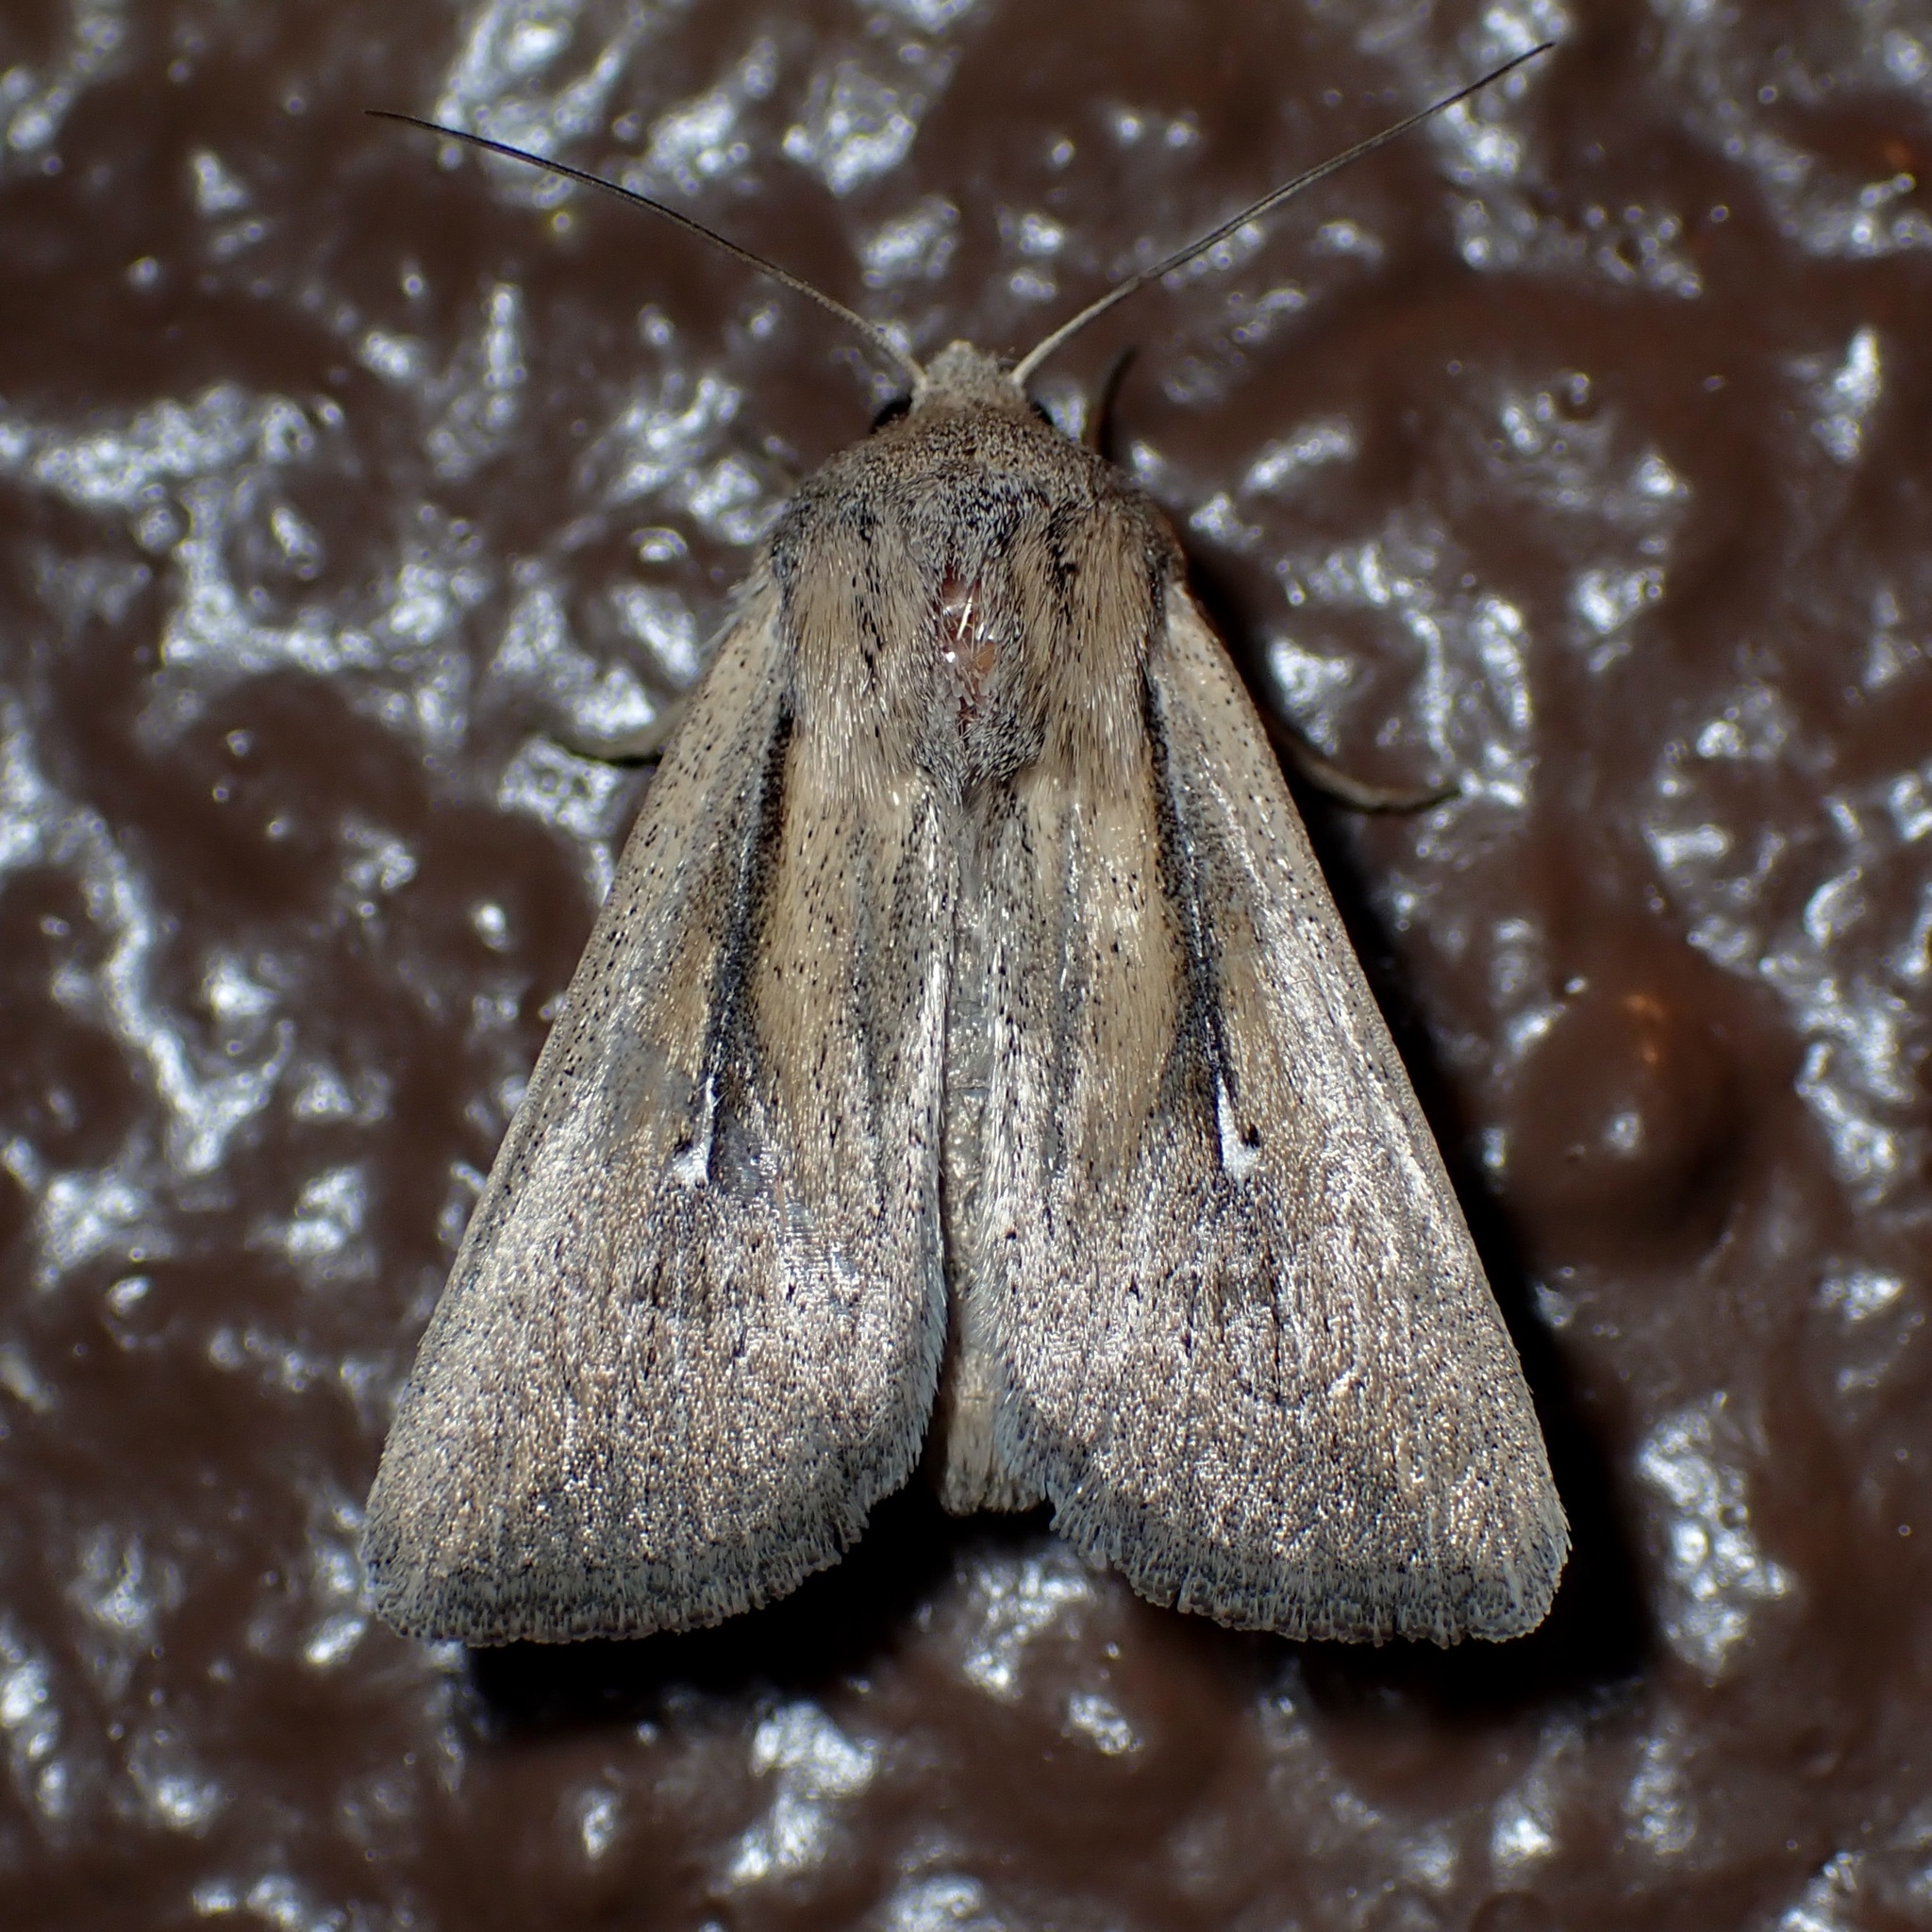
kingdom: Animalia
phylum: Arthropoda
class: Insecta
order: Lepidoptera
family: Noctuidae
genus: Leucania
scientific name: Leucania imperfecta
